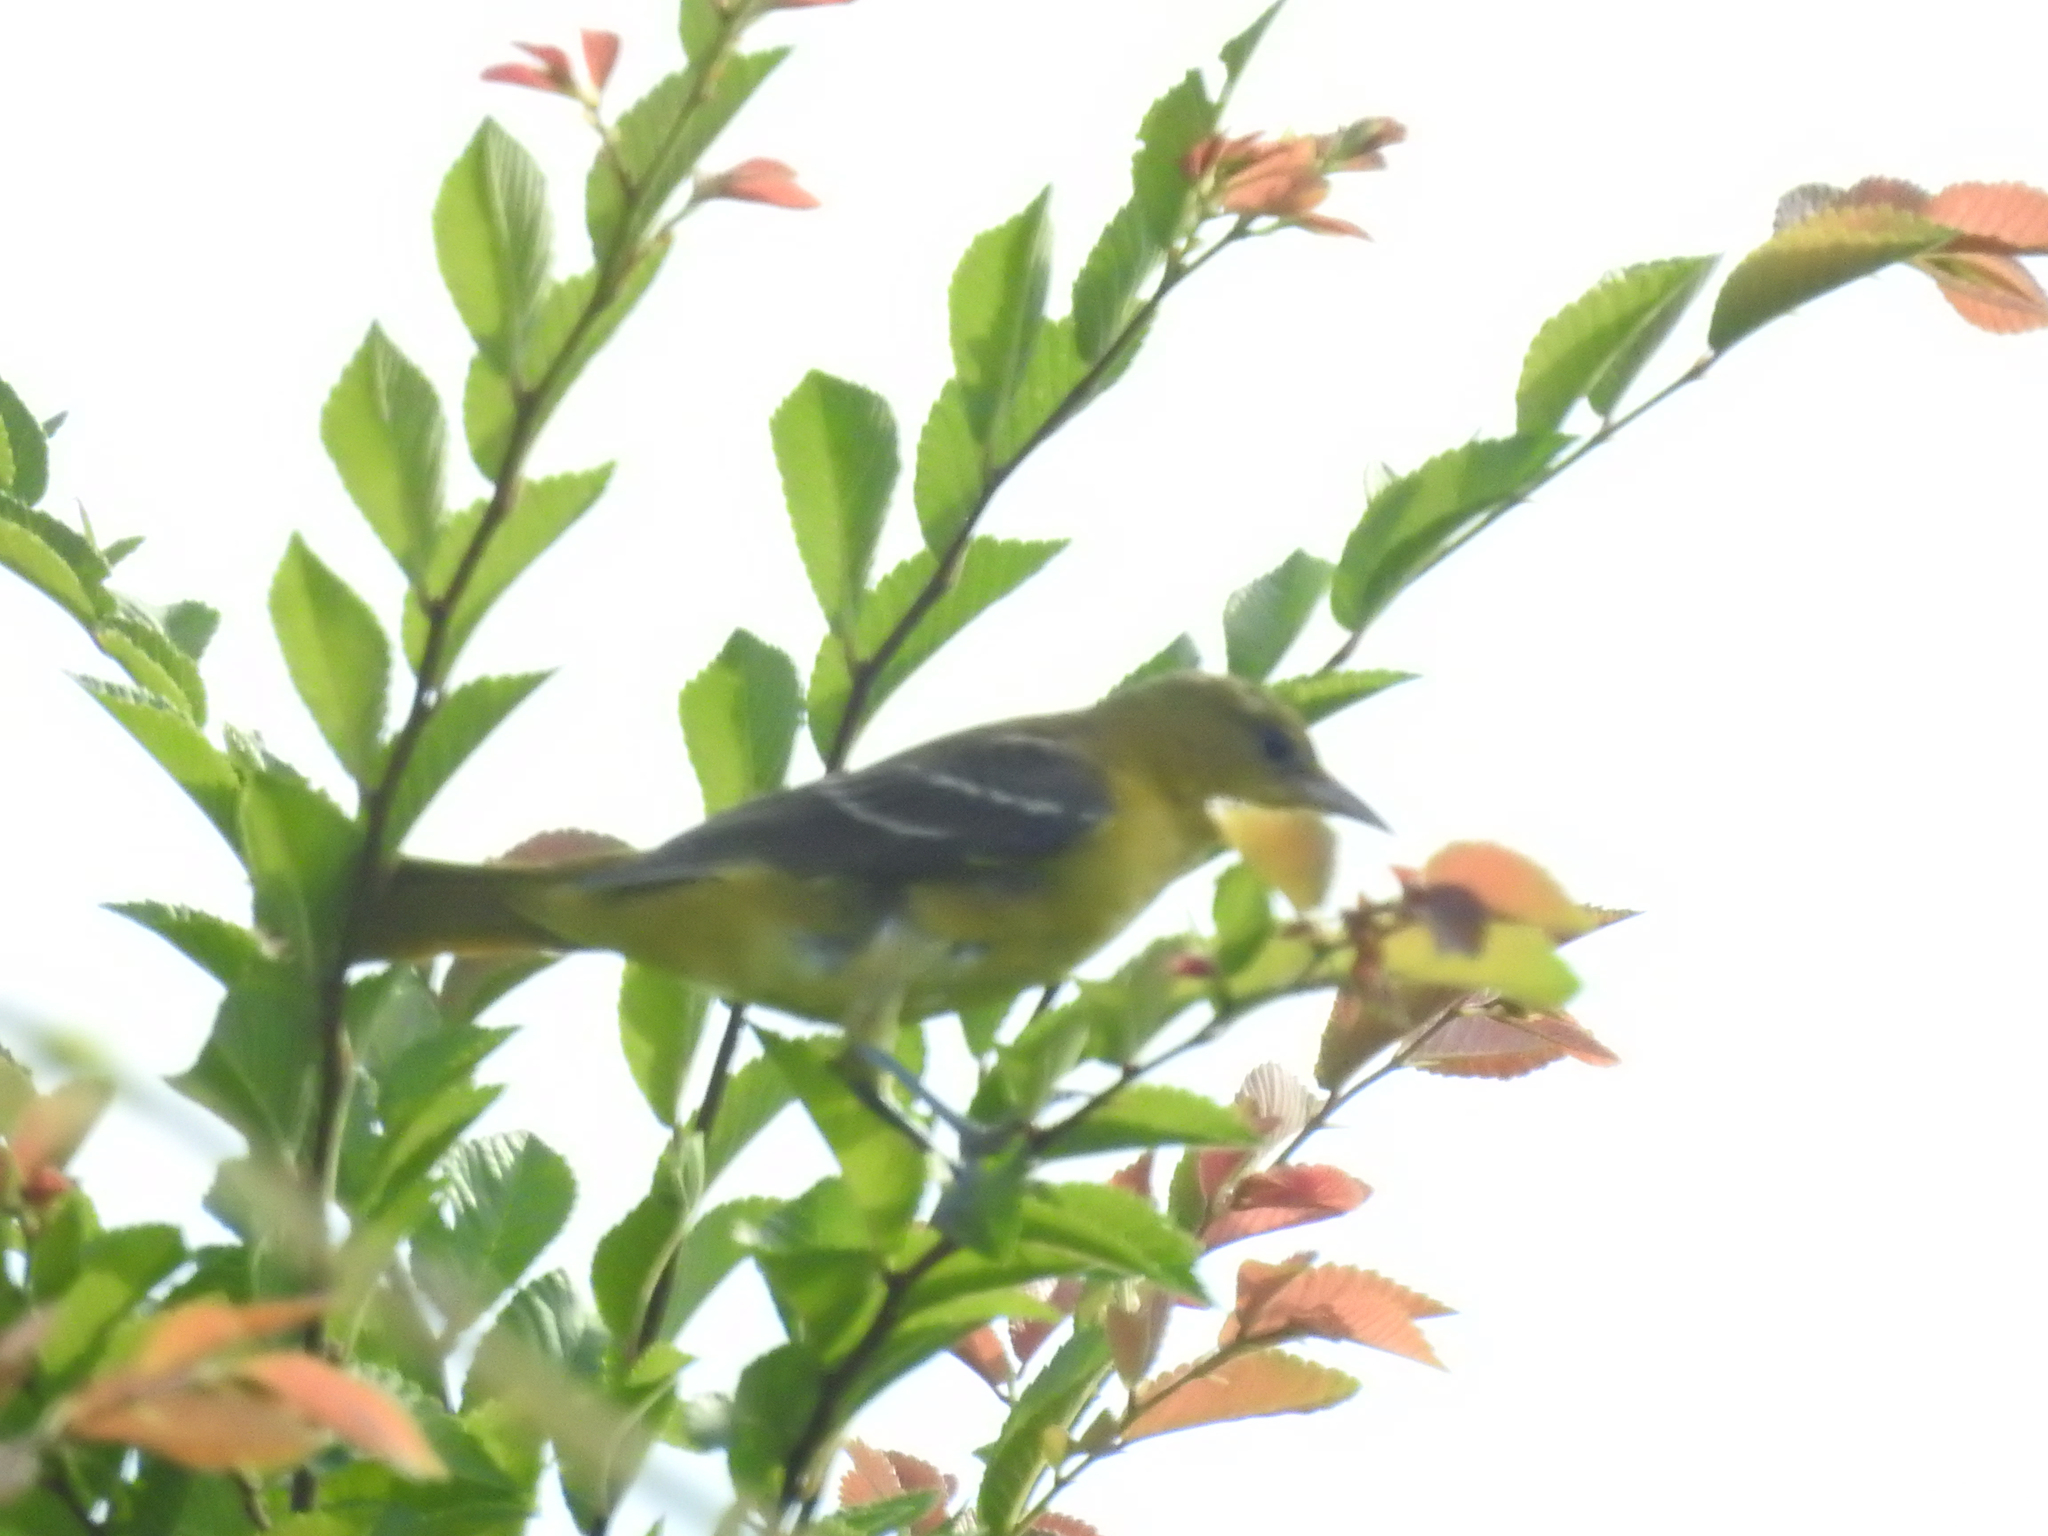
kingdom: Animalia
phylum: Chordata
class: Aves
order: Passeriformes
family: Icteridae
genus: Icterus
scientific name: Icterus spurius
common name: Orchard oriole
